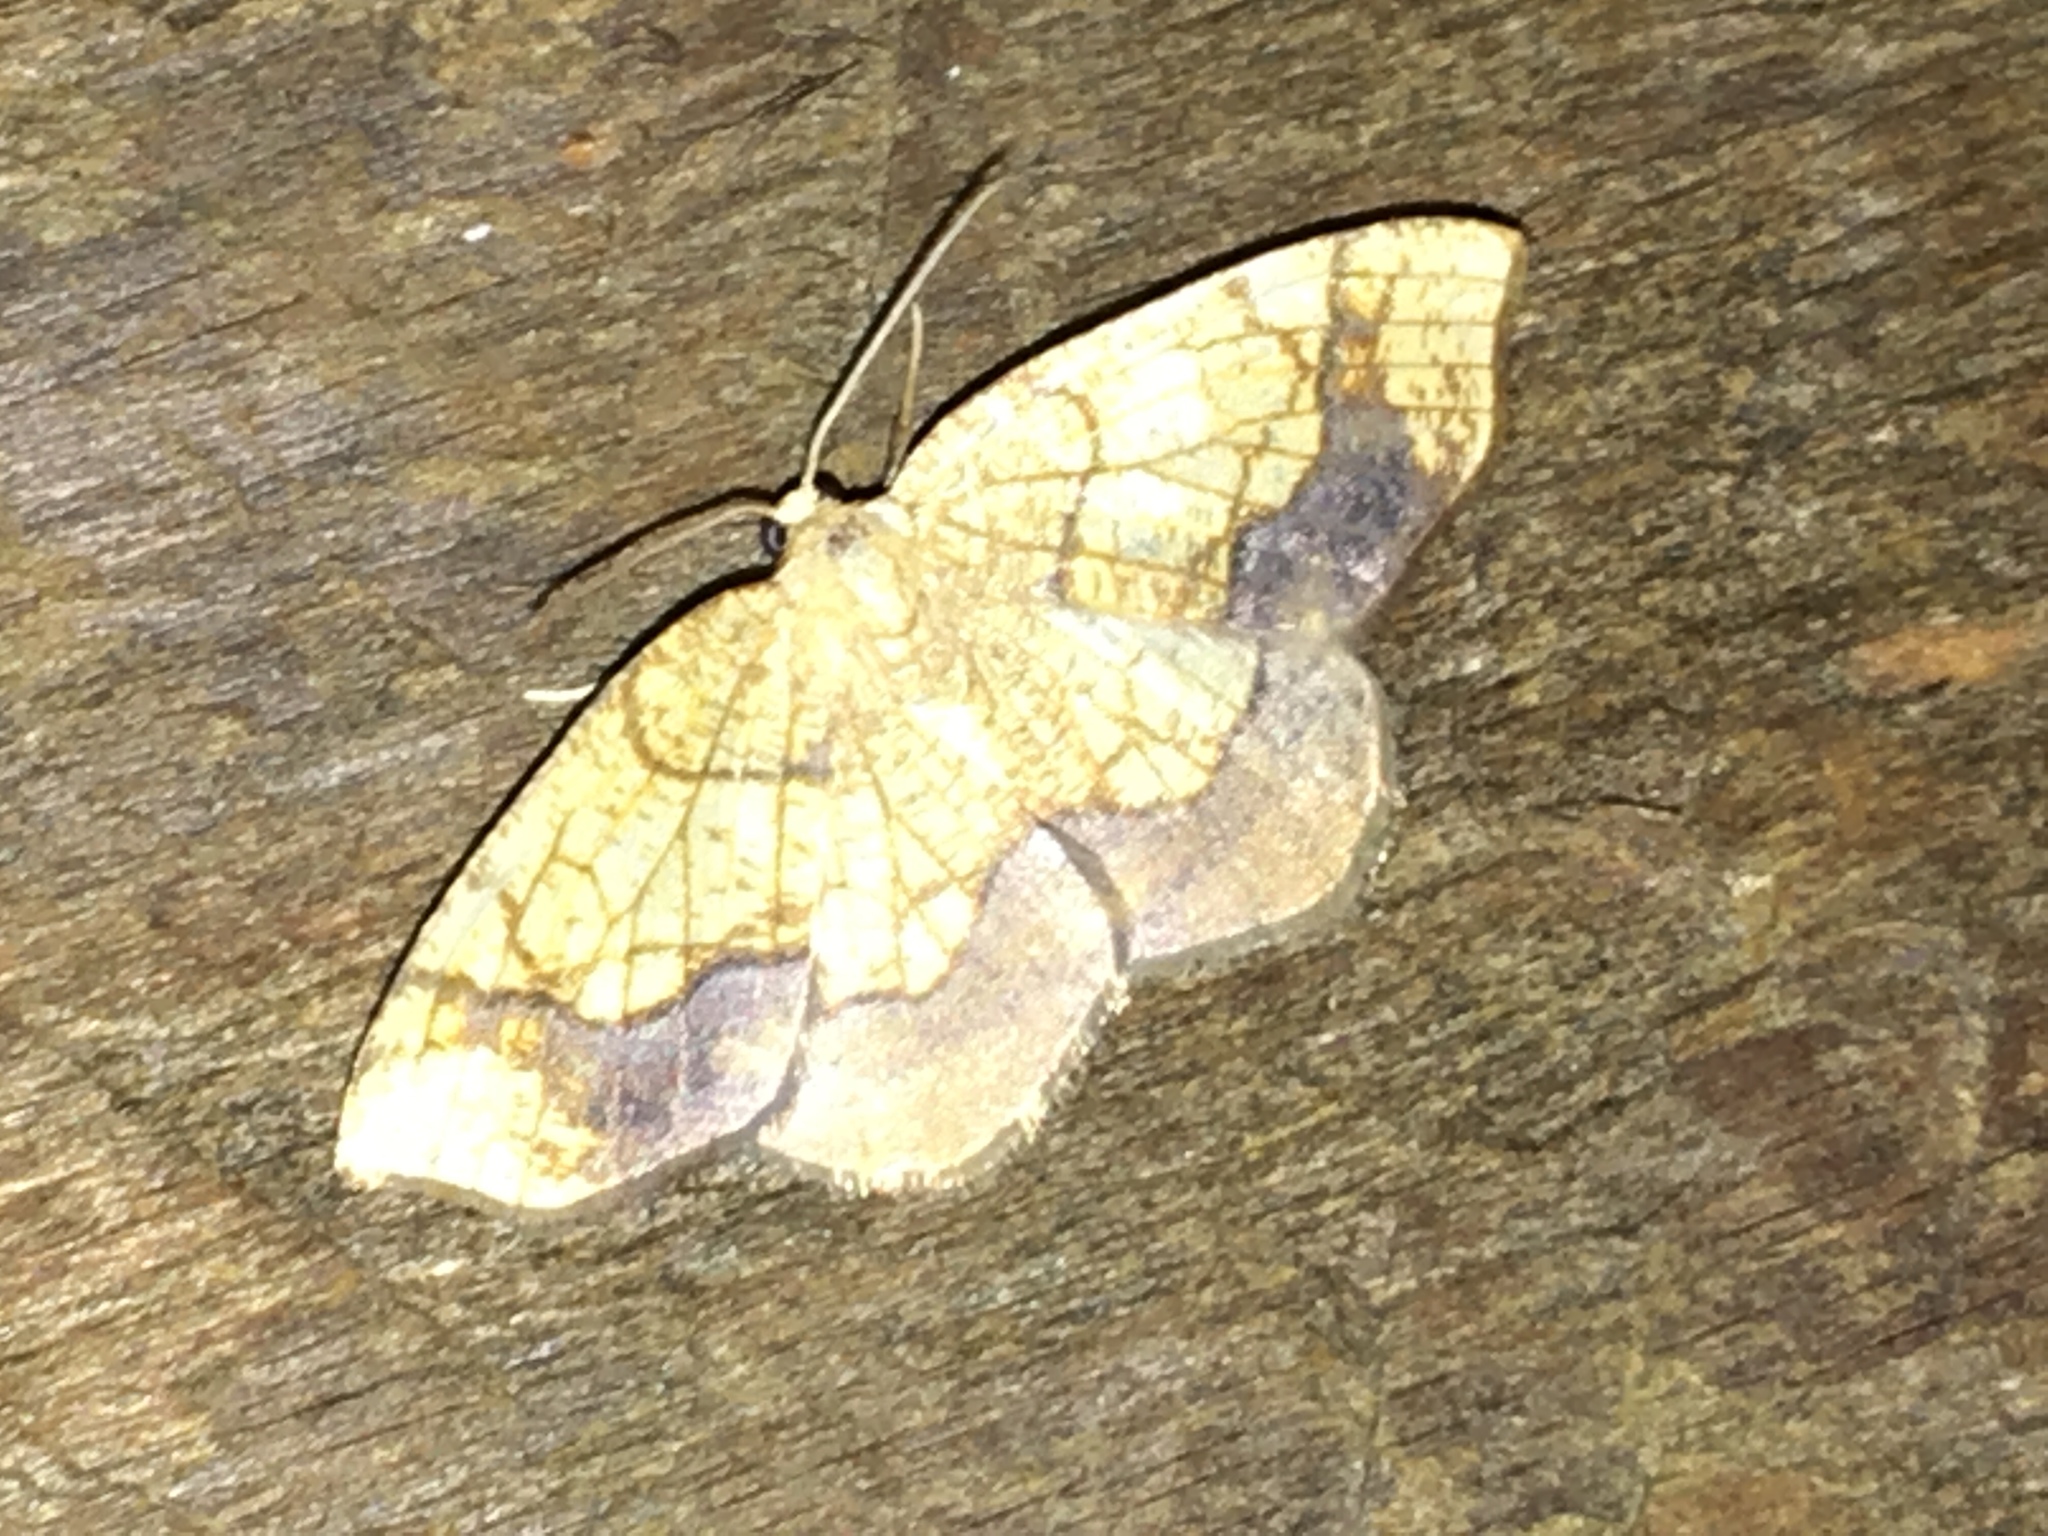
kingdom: Animalia
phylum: Arthropoda
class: Insecta
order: Lepidoptera
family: Geometridae
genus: Nematocampa
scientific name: Nematocampa resistaria
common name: Horned spanworm moth
